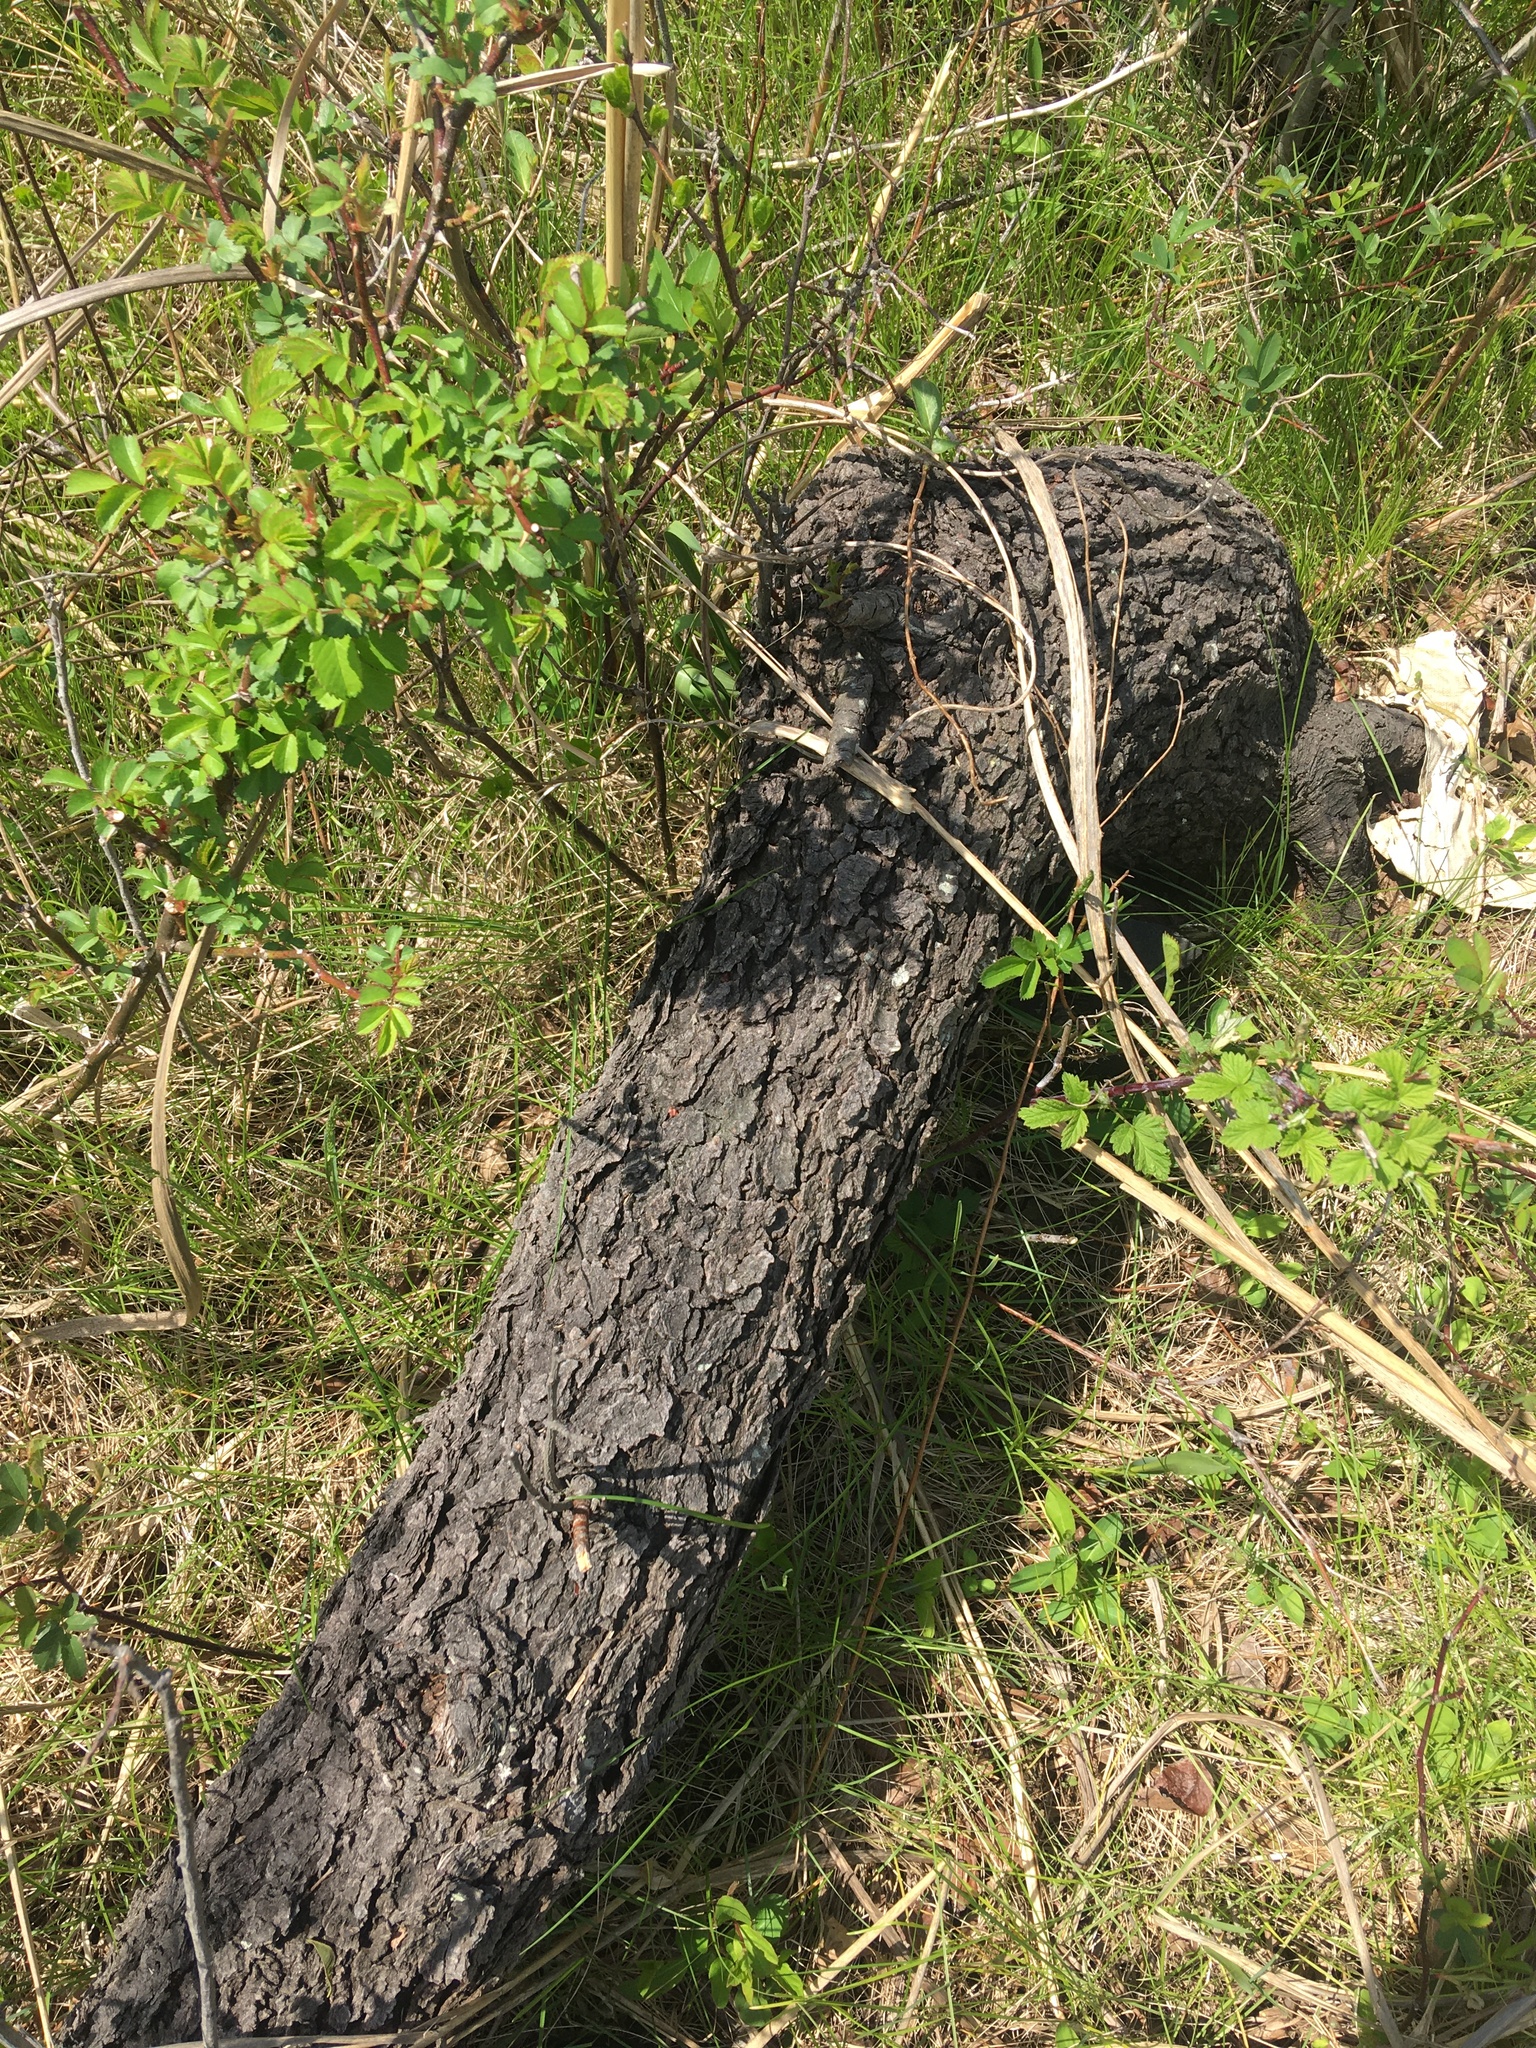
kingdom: Plantae
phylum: Tracheophyta
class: Magnoliopsida
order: Rosales
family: Rosaceae
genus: Prunus
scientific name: Prunus serotina
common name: Black cherry
